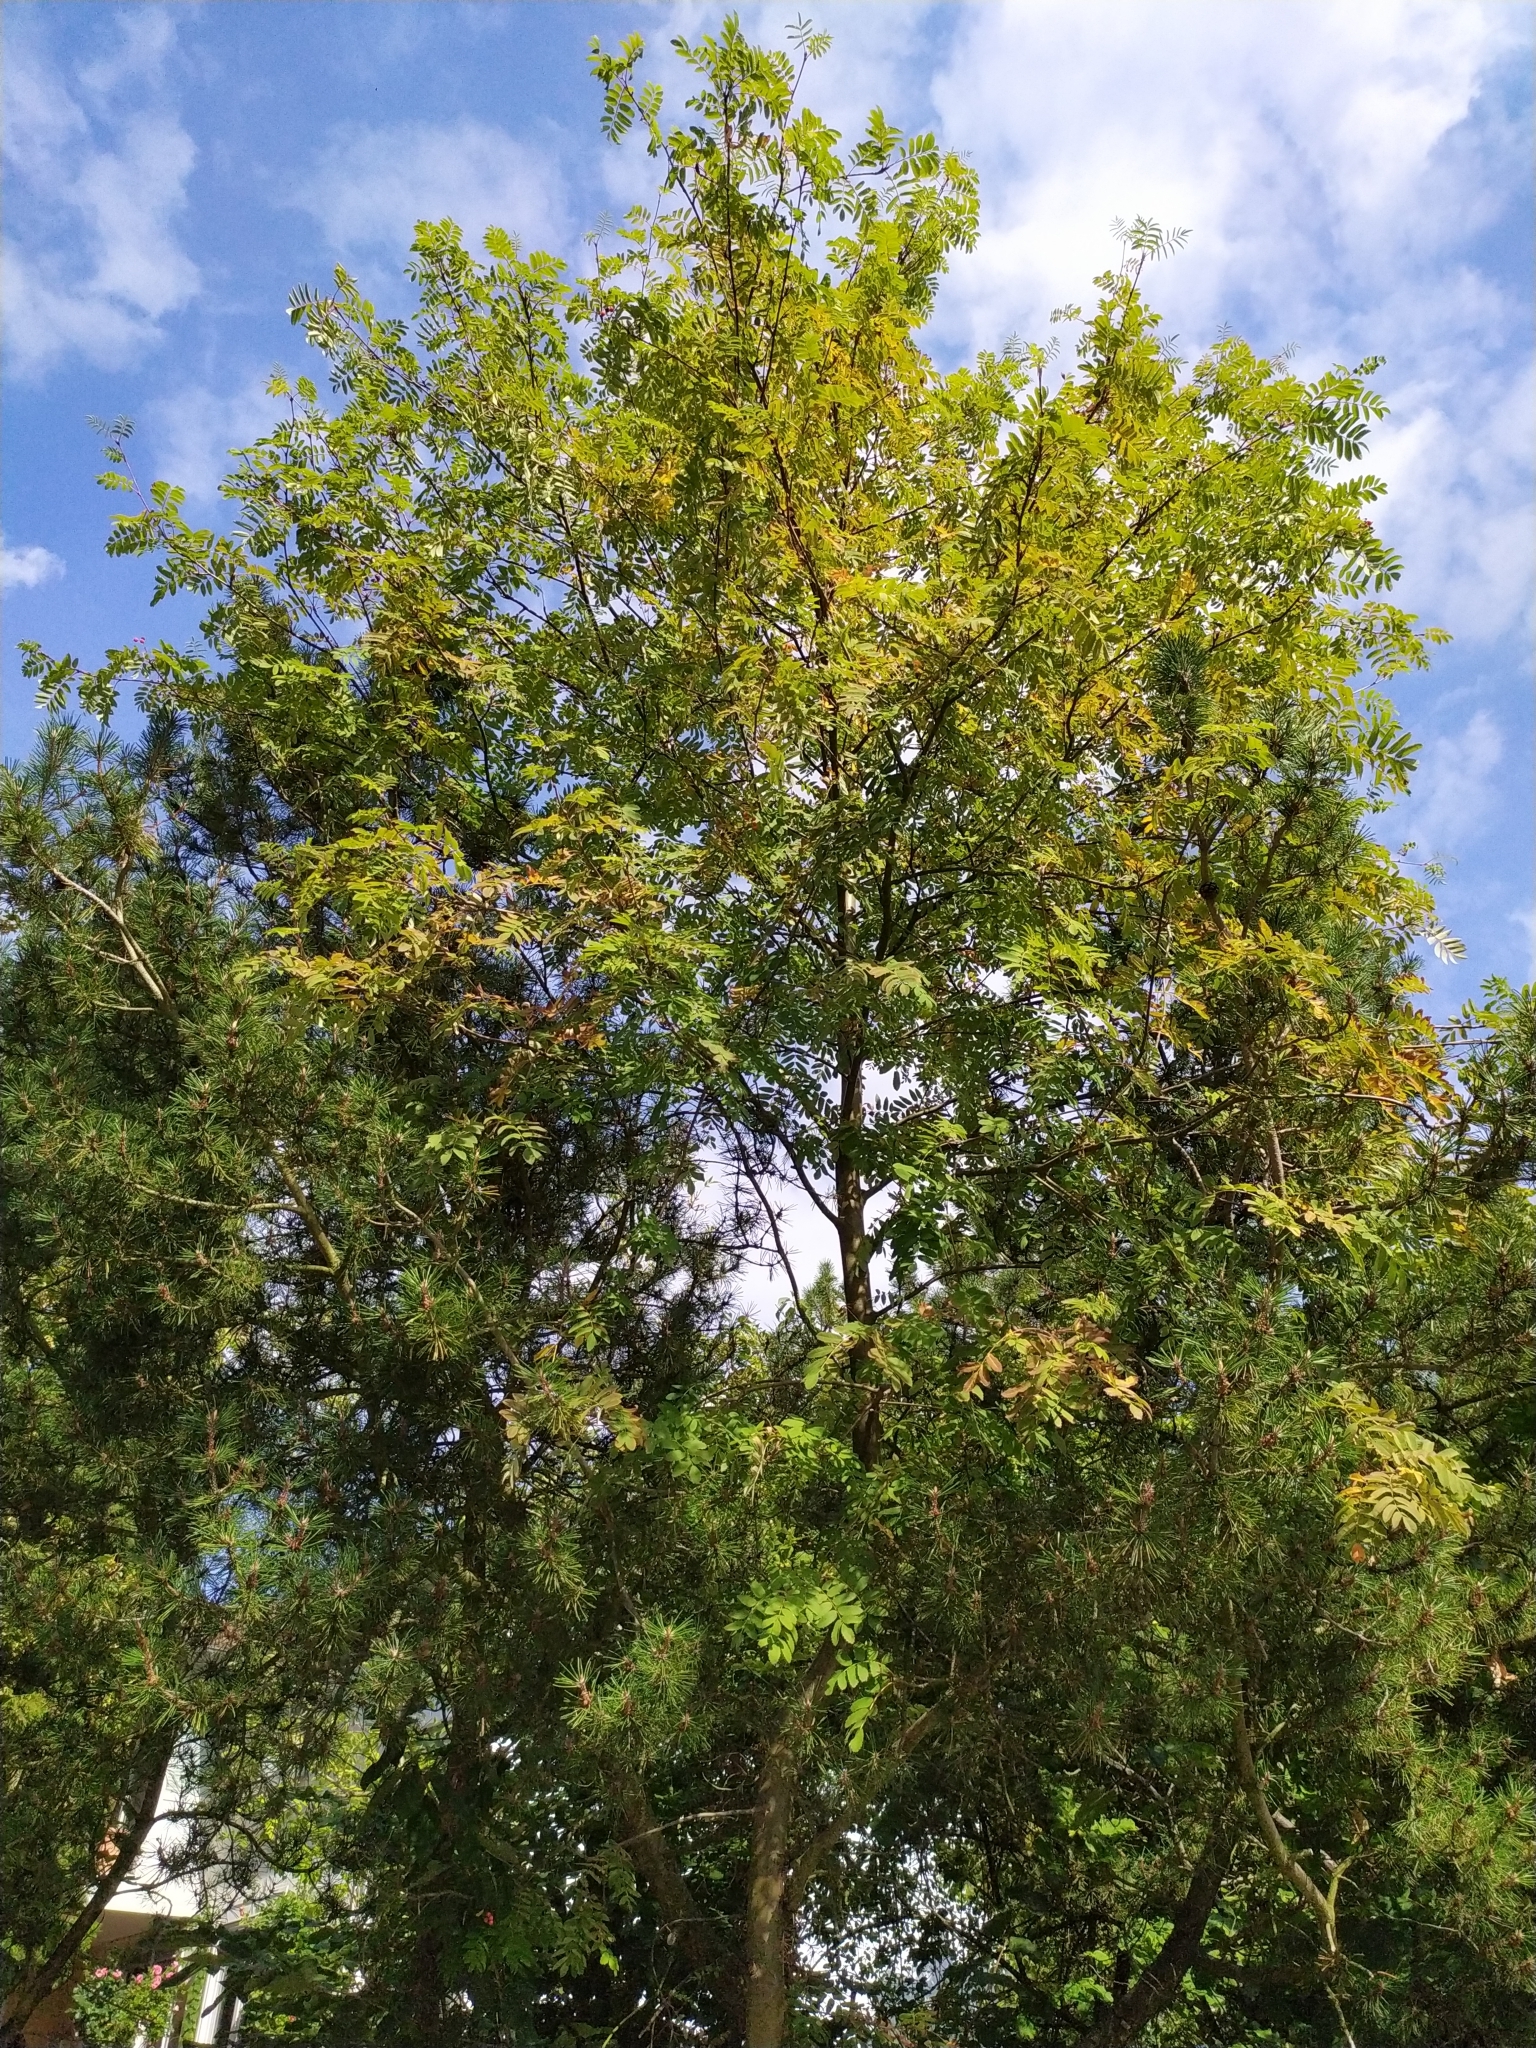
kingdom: Plantae
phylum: Tracheophyta
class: Magnoliopsida
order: Rosales
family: Rosaceae
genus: Sorbus
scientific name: Sorbus aucuparia
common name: Rowan
